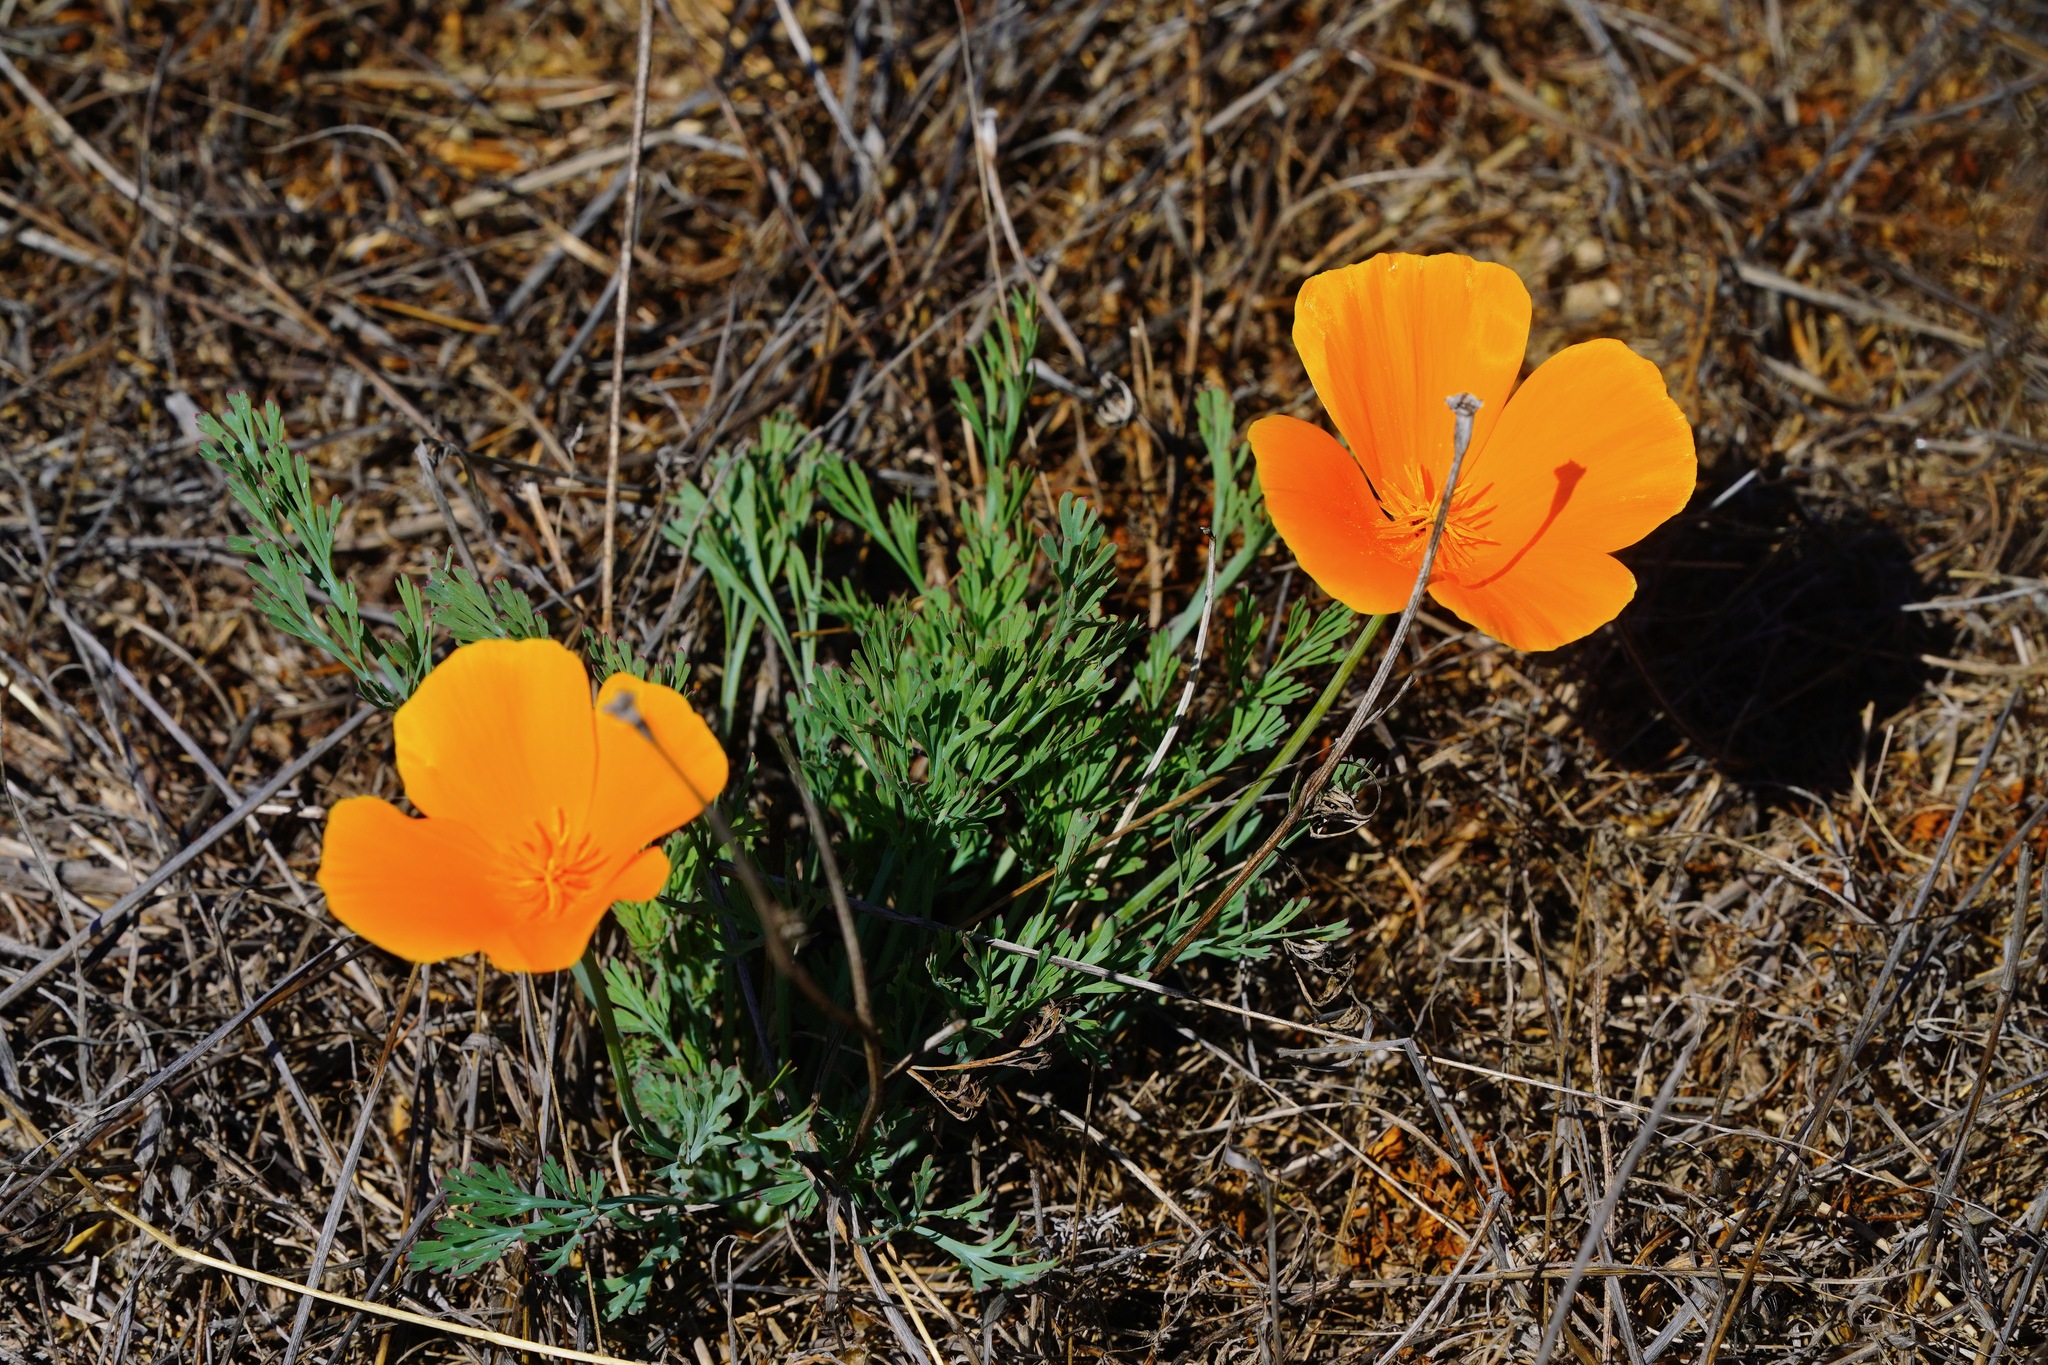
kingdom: Plantae
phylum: Tracheophyta
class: Magnoliopsida
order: Ranunculales
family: Papaveraceae
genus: Eschscholzia
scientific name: Eschscholzia californica
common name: California poppy
